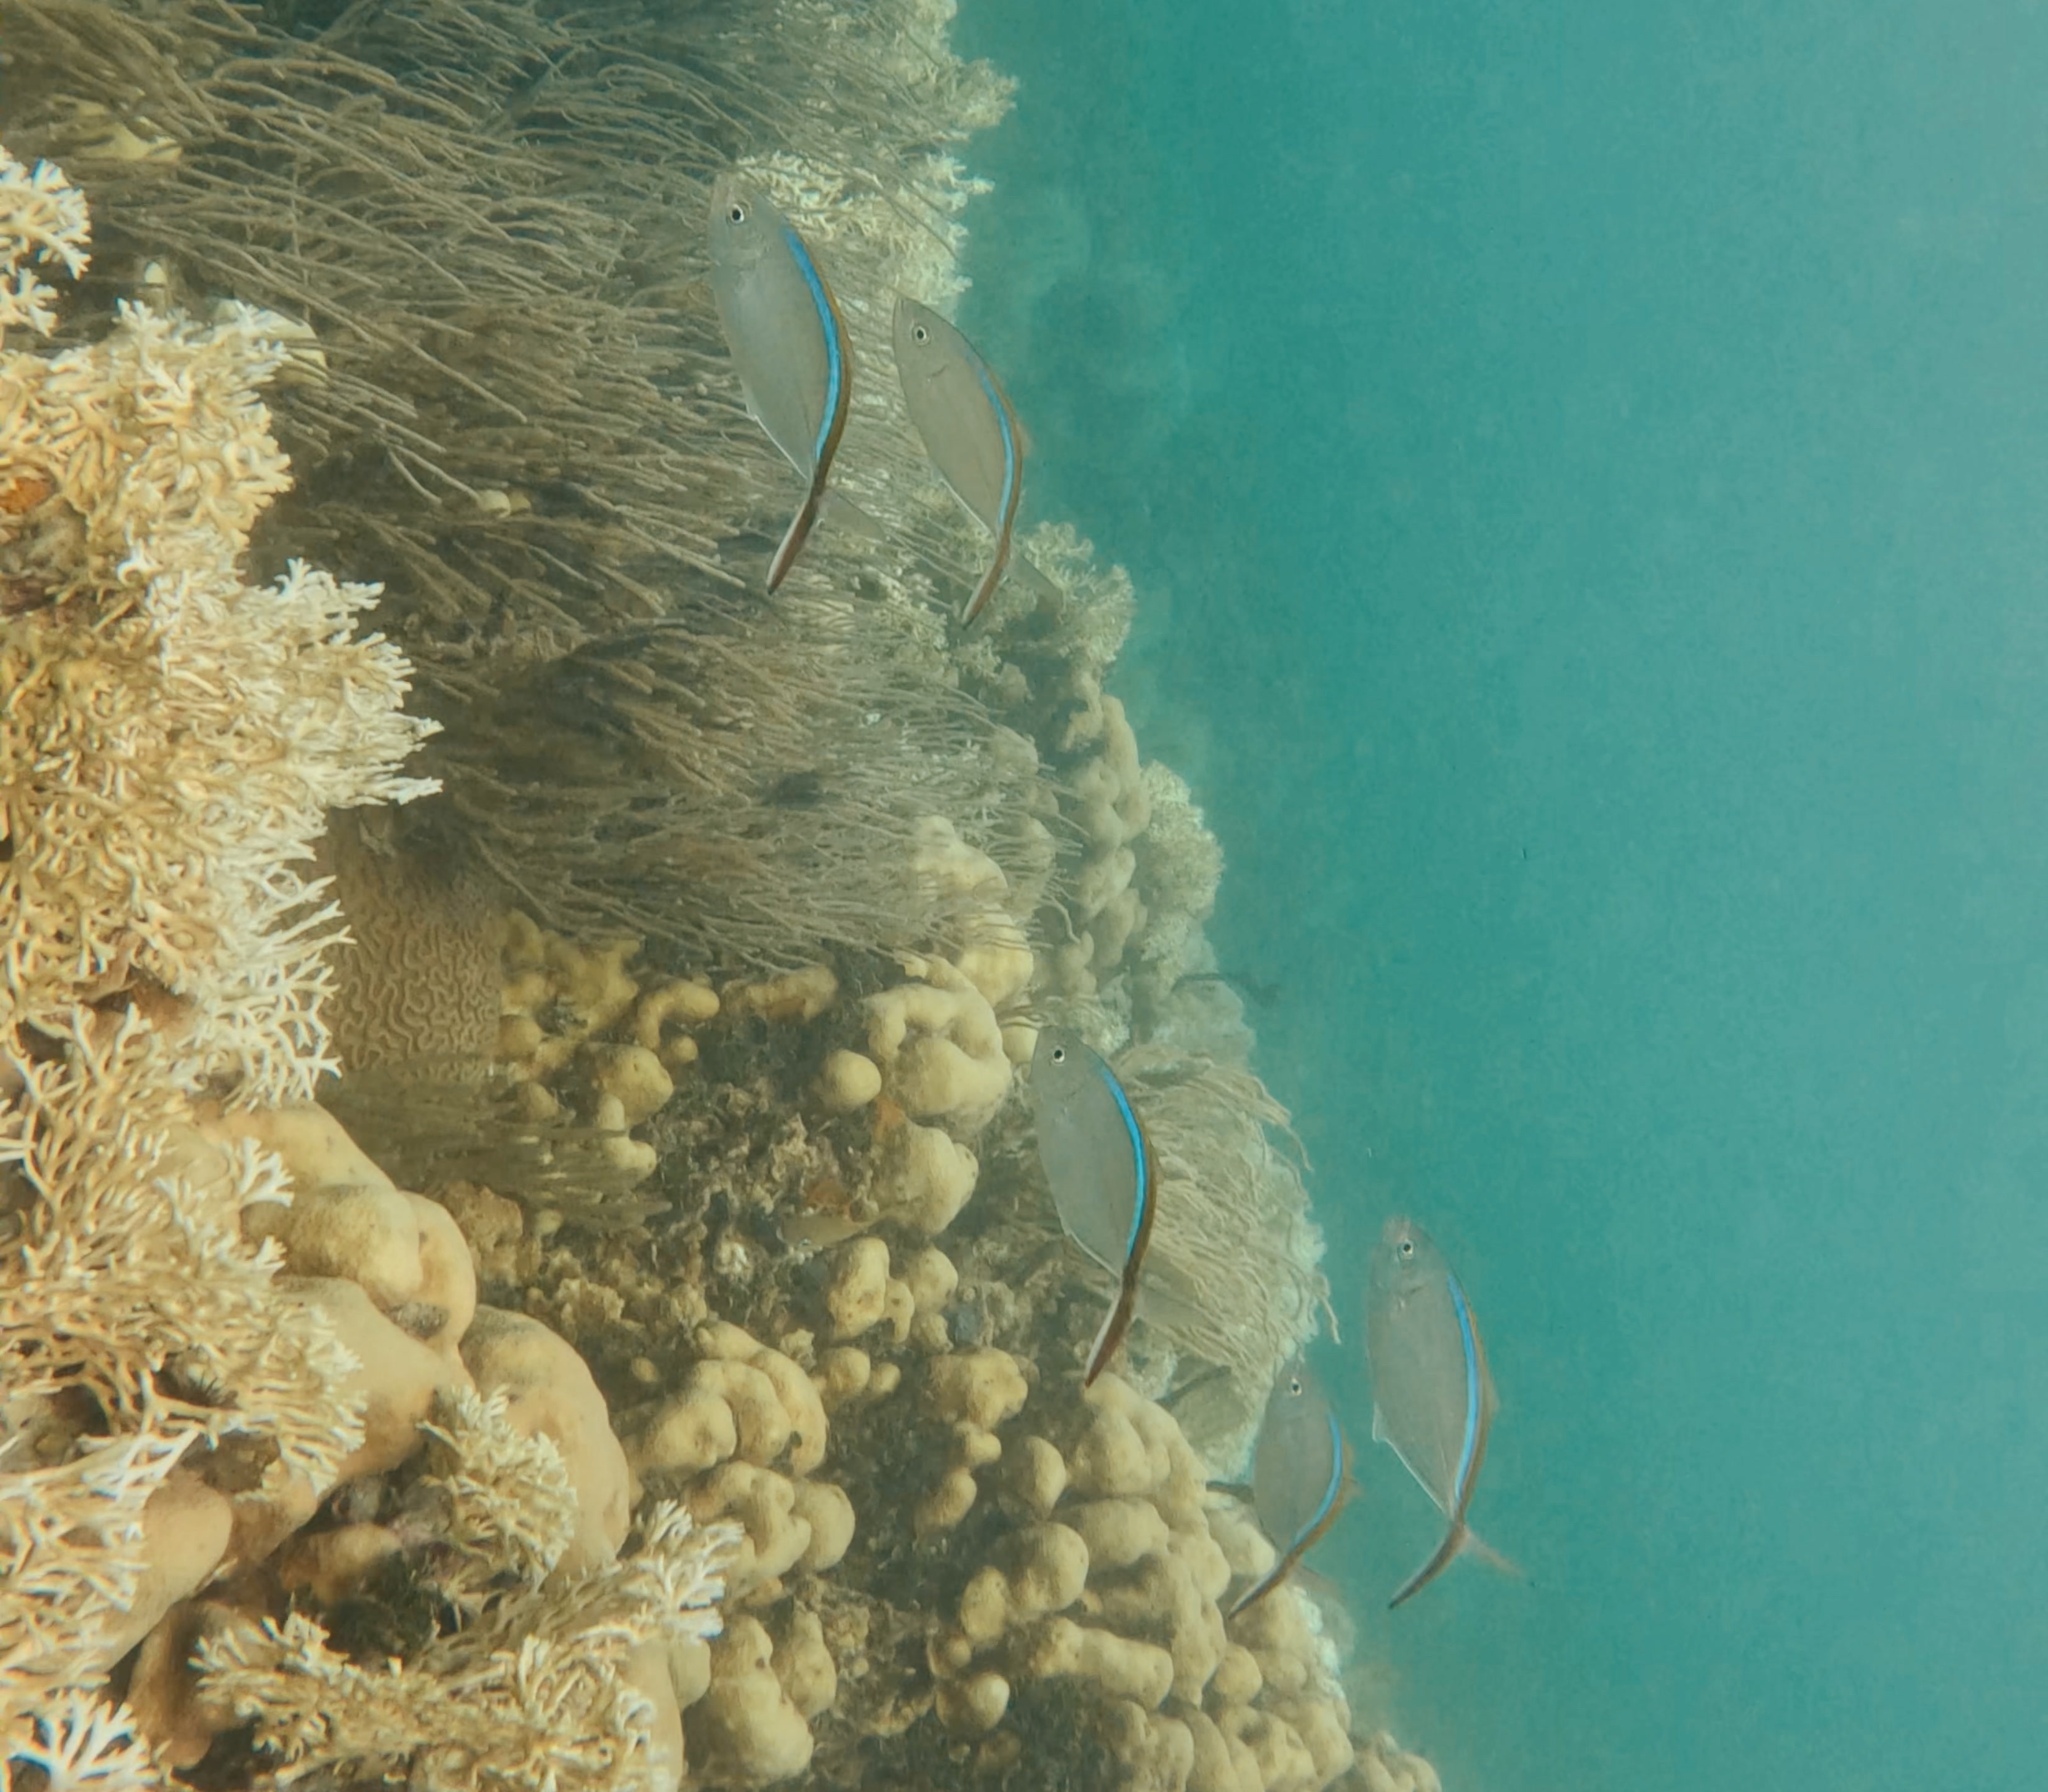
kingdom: Animalia
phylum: Chordata
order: Perciformes
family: Carangidae
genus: Caranx
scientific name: Caranx ruber
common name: Bar jack
